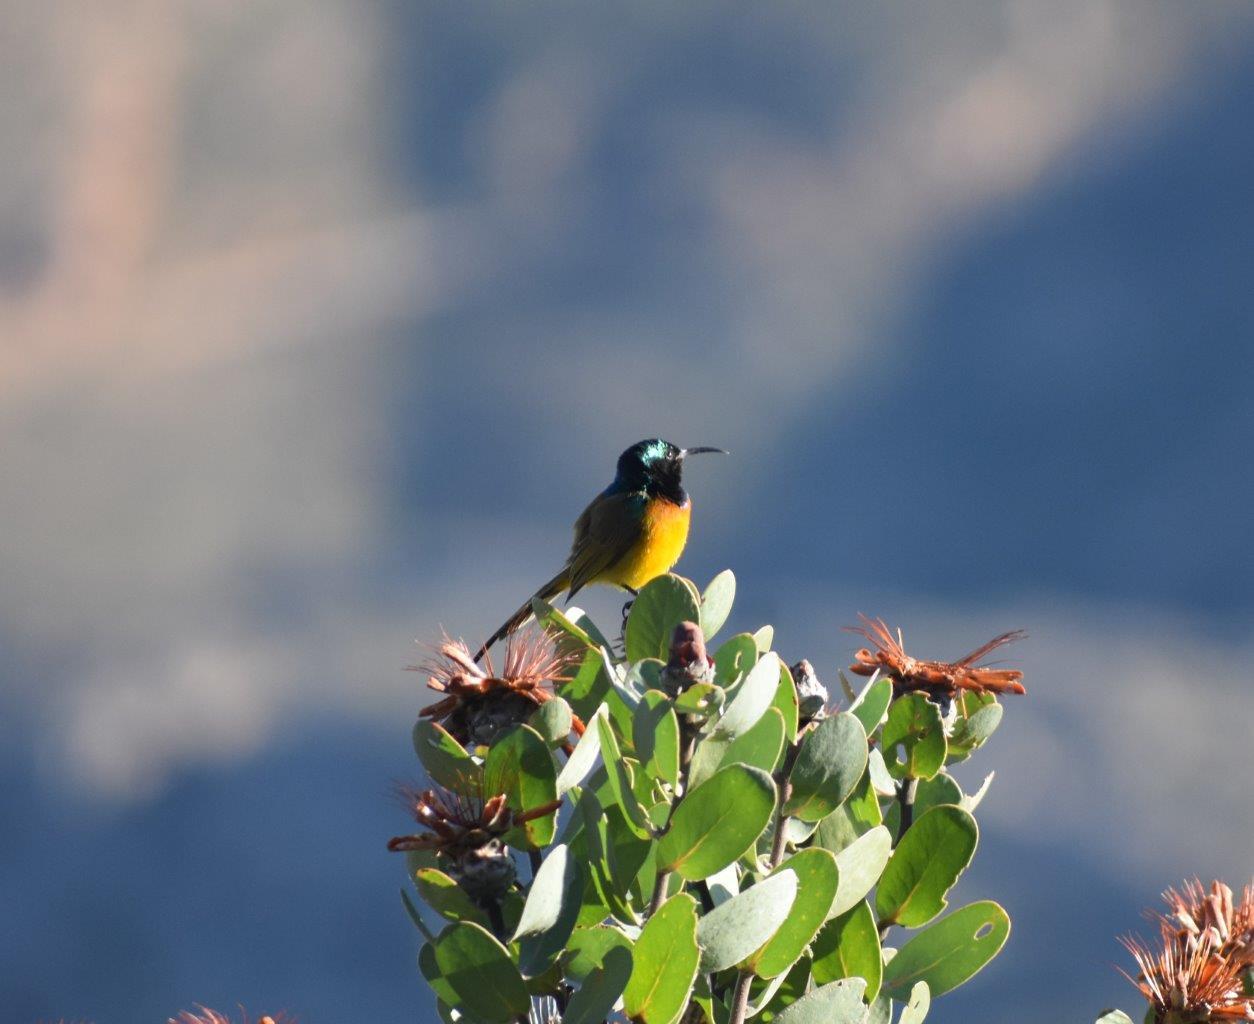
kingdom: Animalia
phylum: Chordata
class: Aves
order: Passeriformes
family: Nectariniidae
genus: Anthobaphes
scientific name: Anthobaphes violacea
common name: Orange-breasted sunbird
